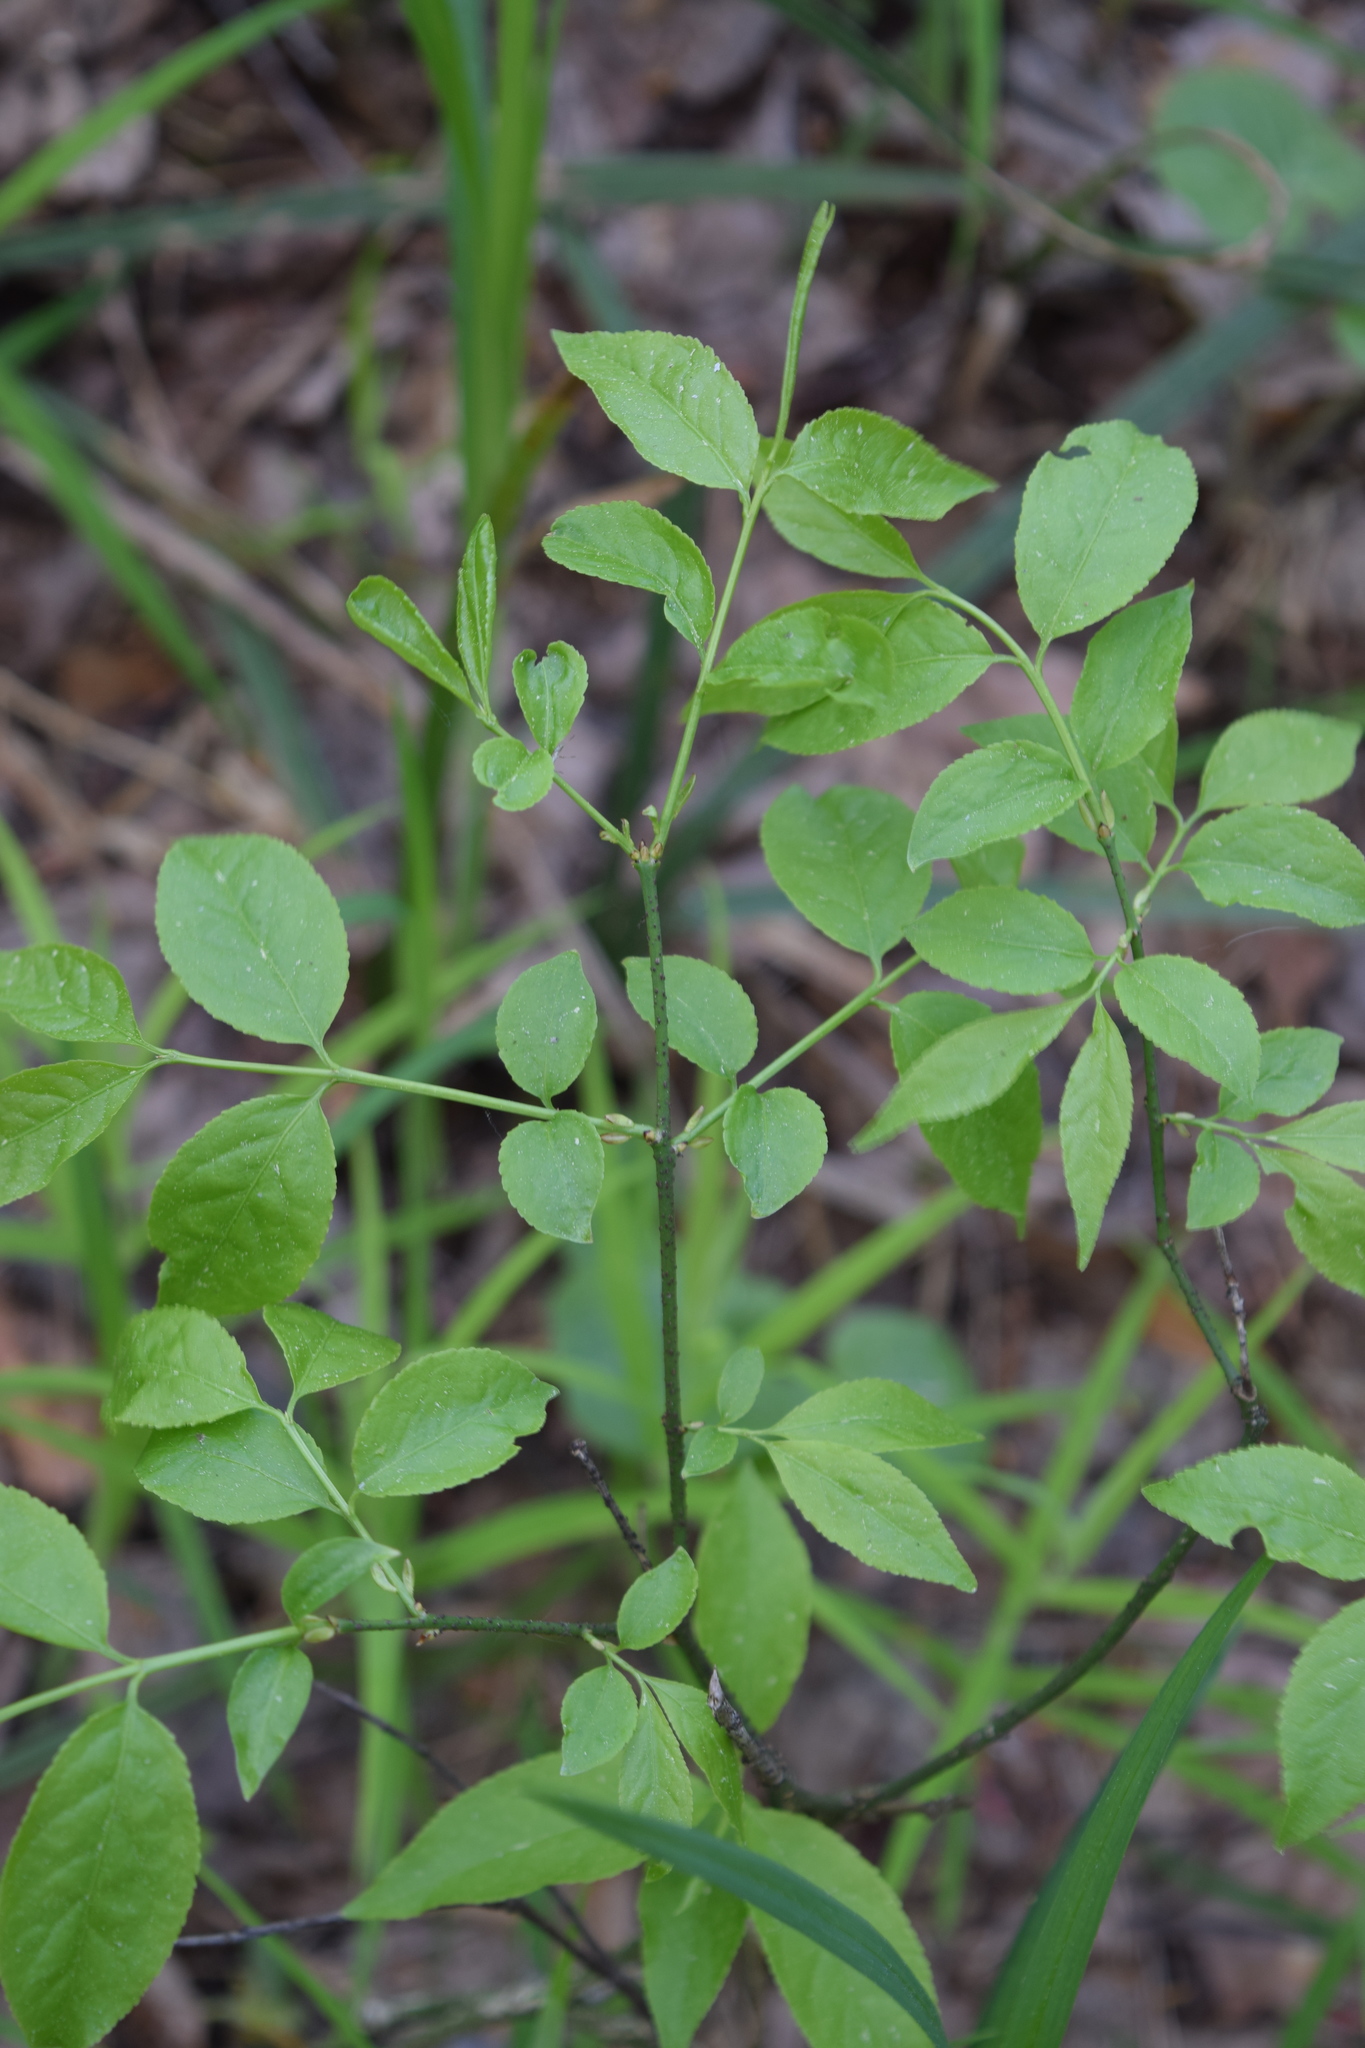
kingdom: Plantae
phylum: Tracheophyta
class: Magnoliopsida
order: Celastrales
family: Celastraceae
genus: Euonymus
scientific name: Euonymus verrucosus
